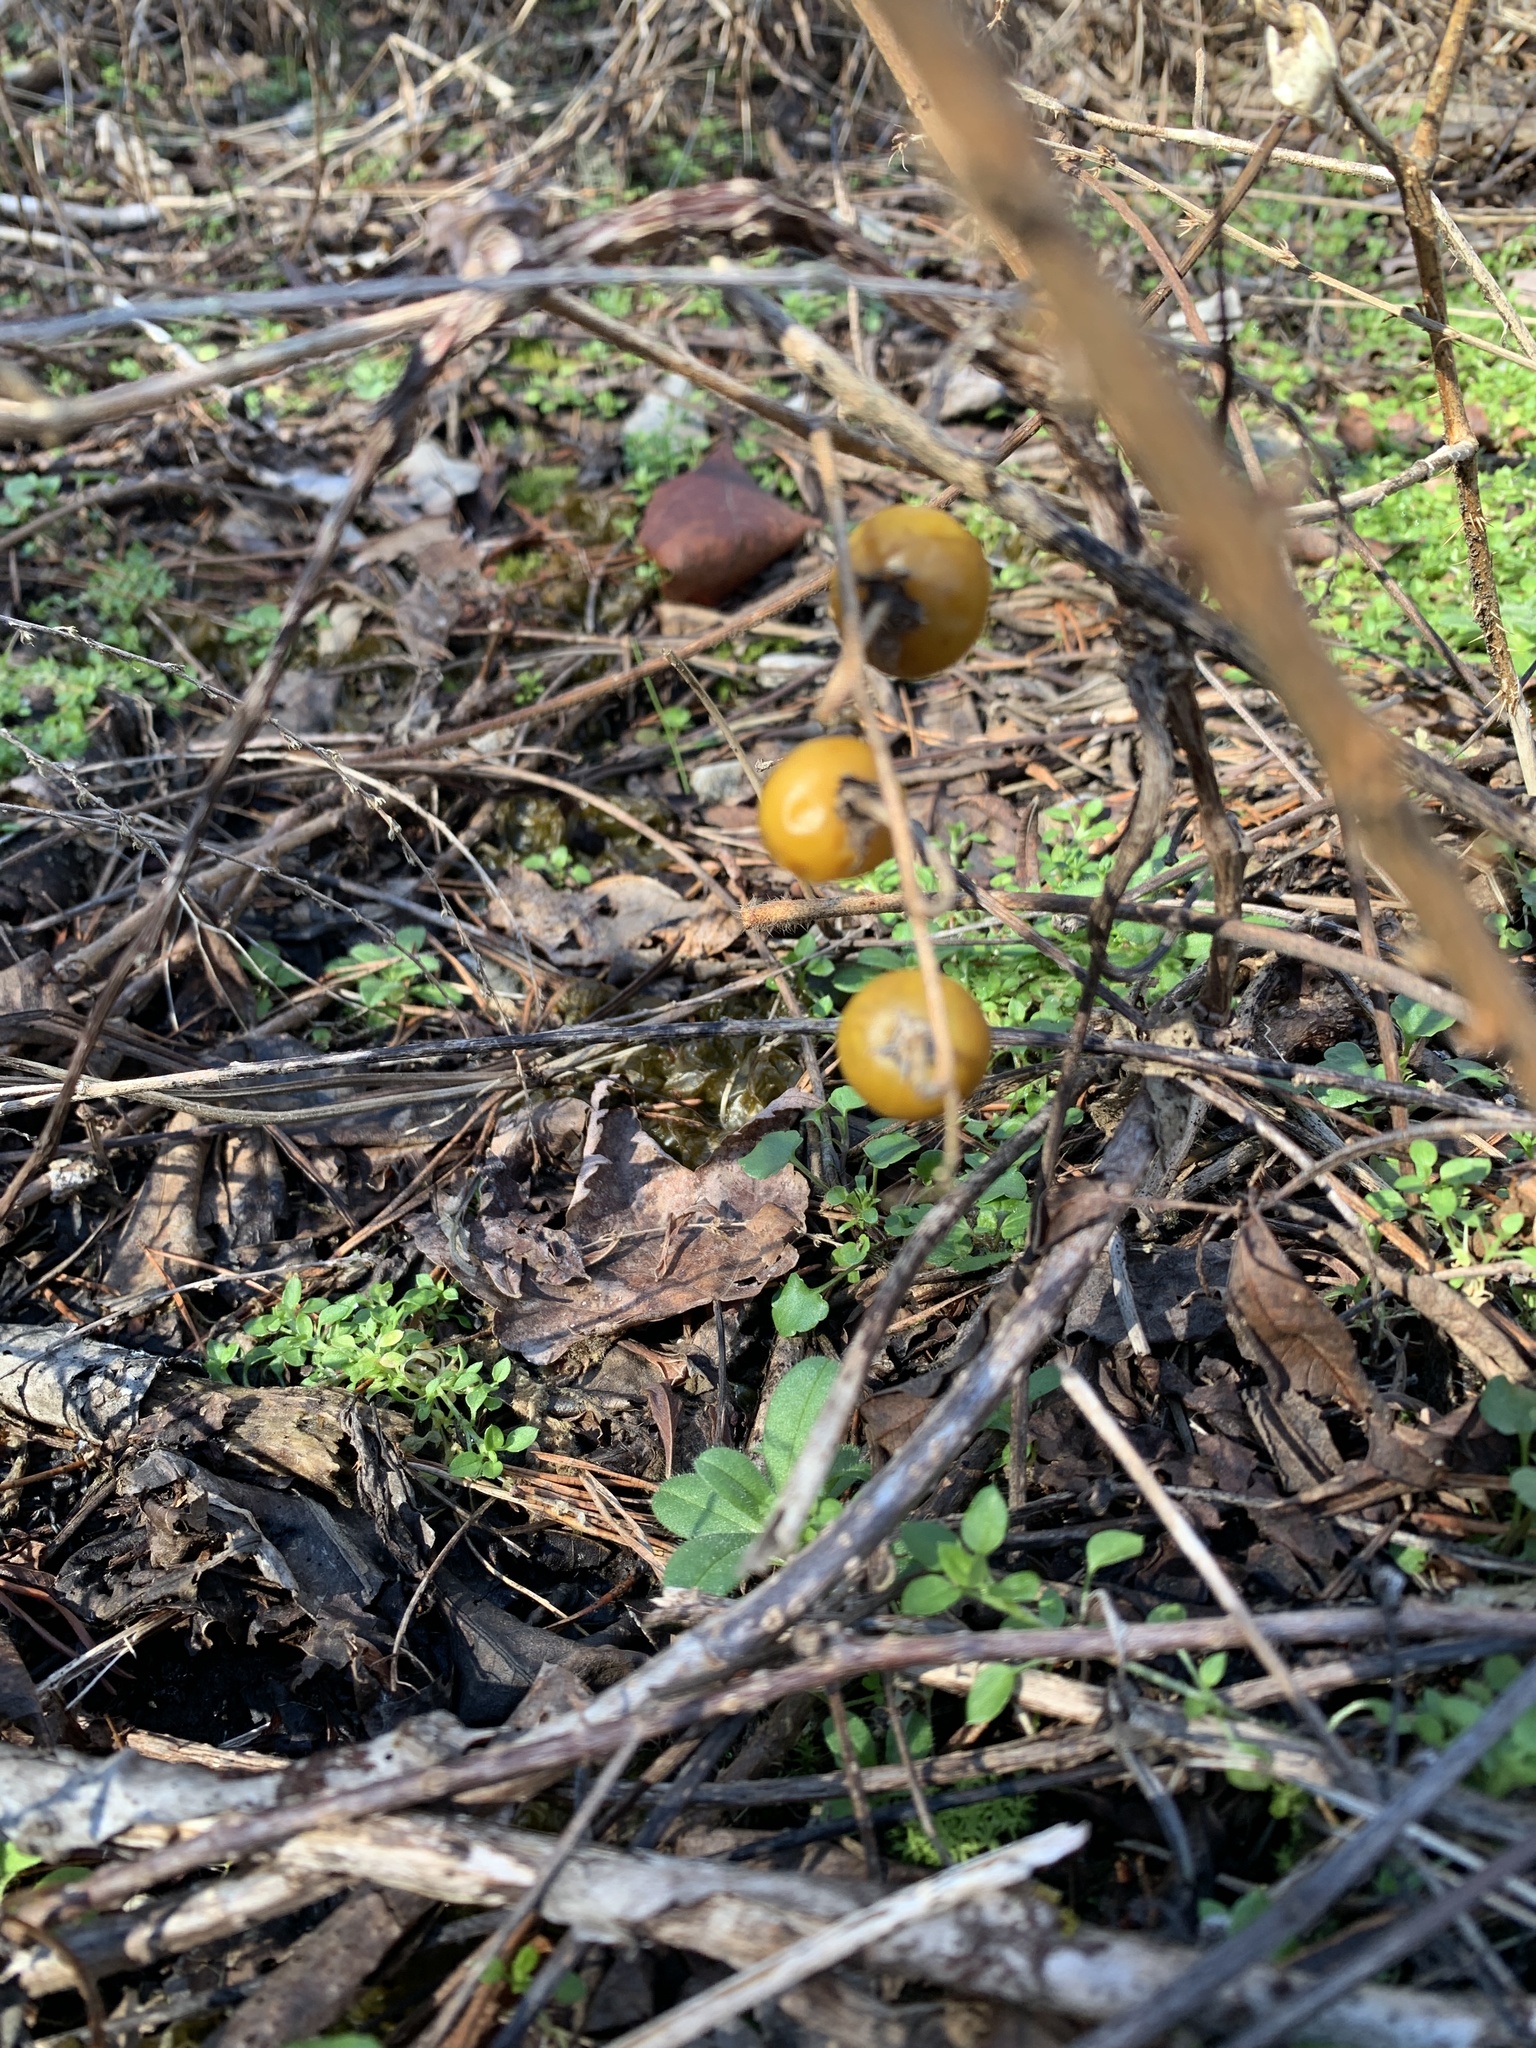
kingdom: Plantae
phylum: Tracheophyta
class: Magnoliopsida
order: Solanales
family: Solanaceae
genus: Solanum
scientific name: Solanum carolinense
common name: Horse-nettle
